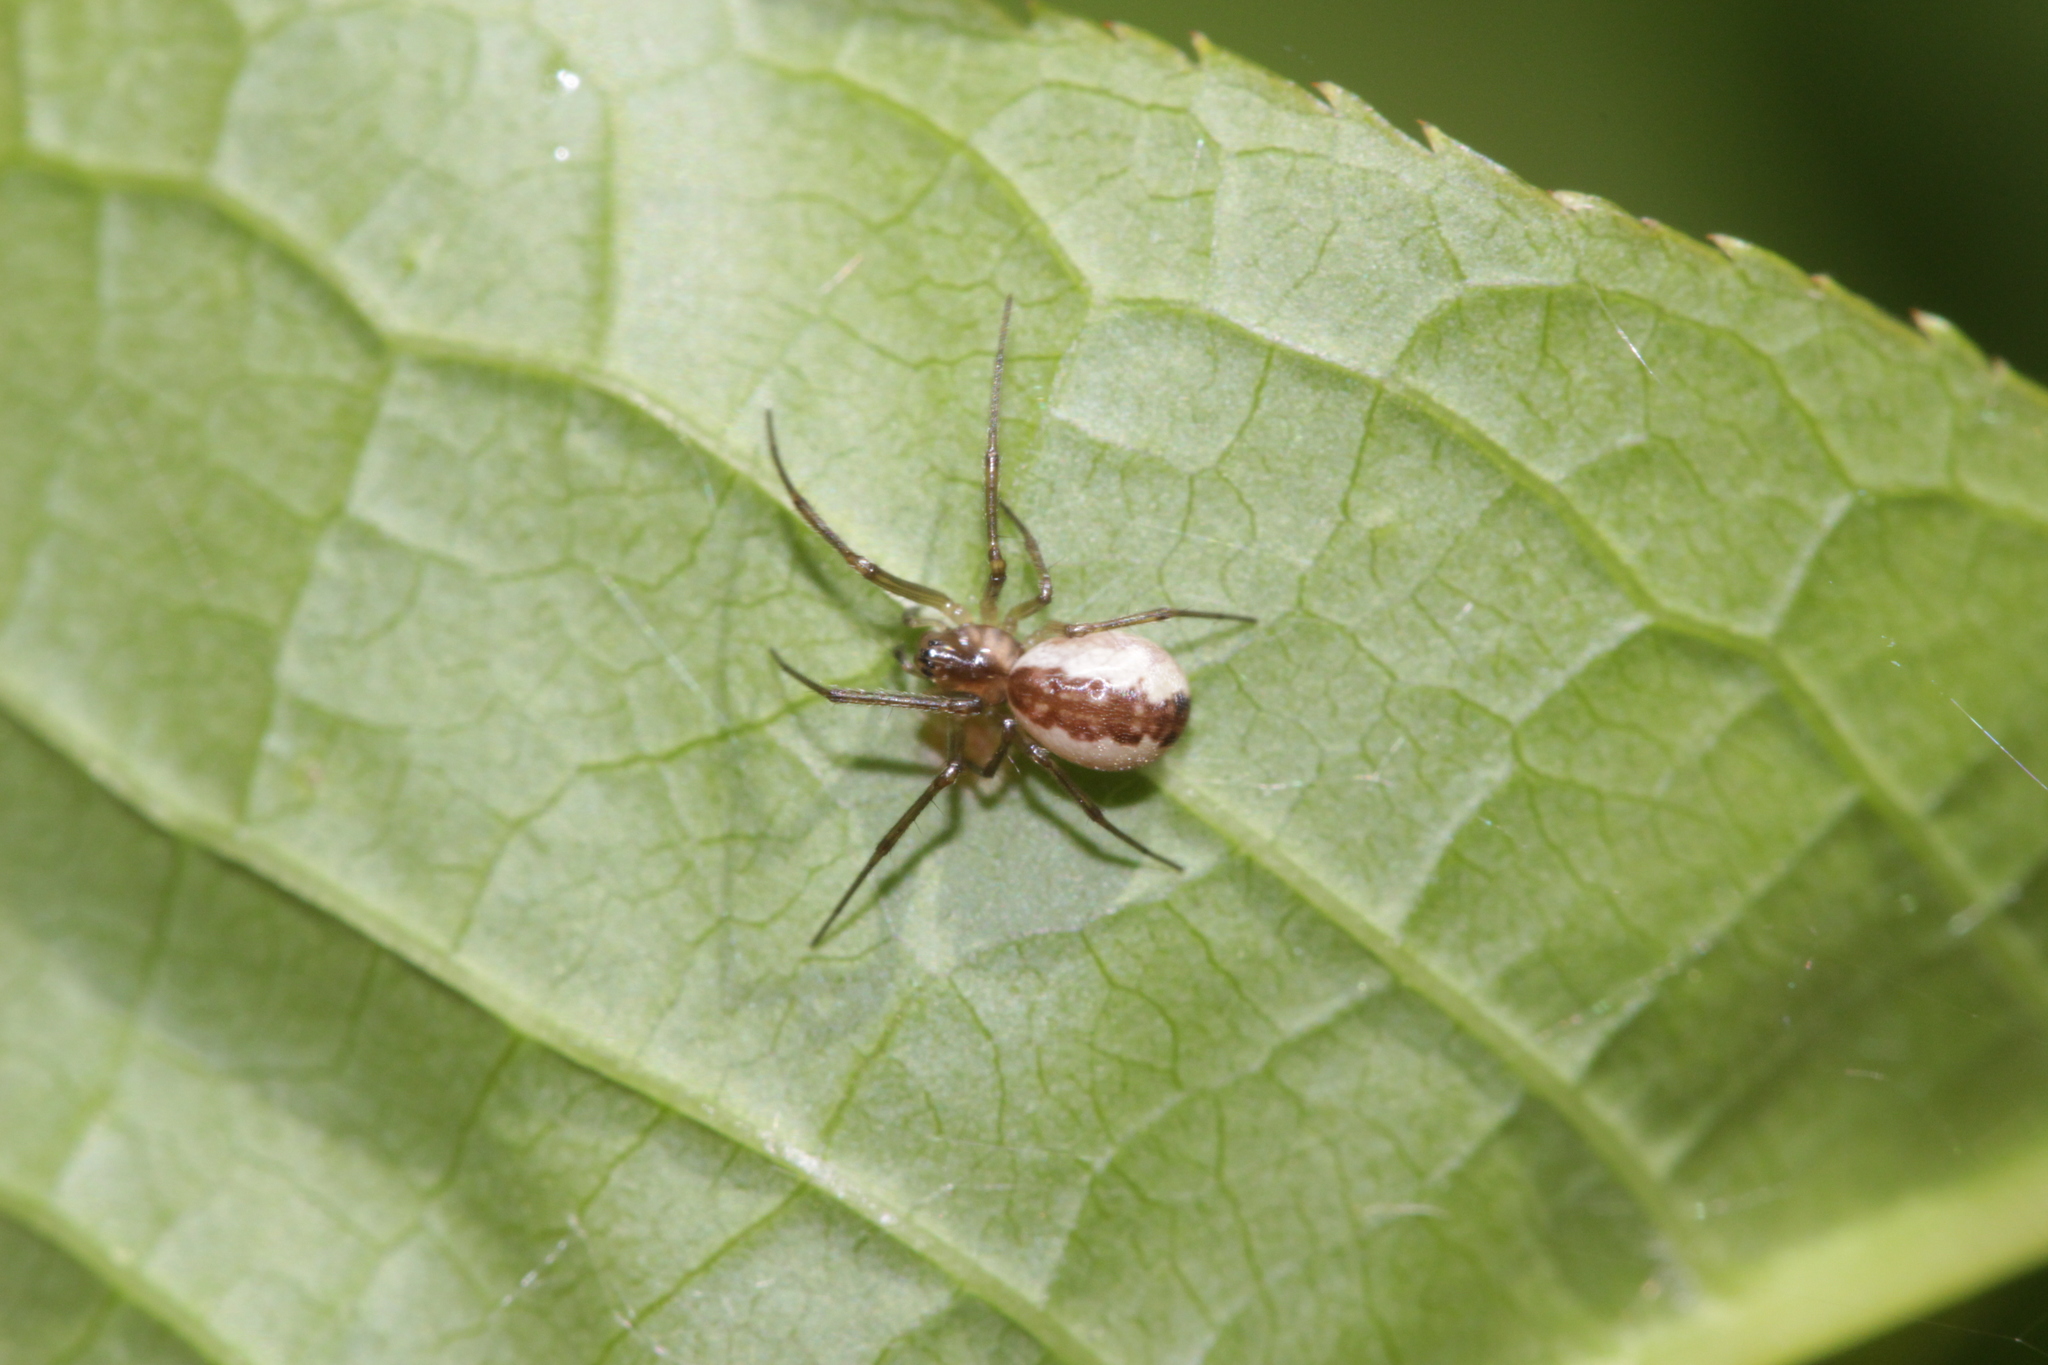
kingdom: Animalia
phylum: Arthropoda
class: Arachnida
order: Araneae
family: Linyphiidae
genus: Neriene
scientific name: Neriene peltata
